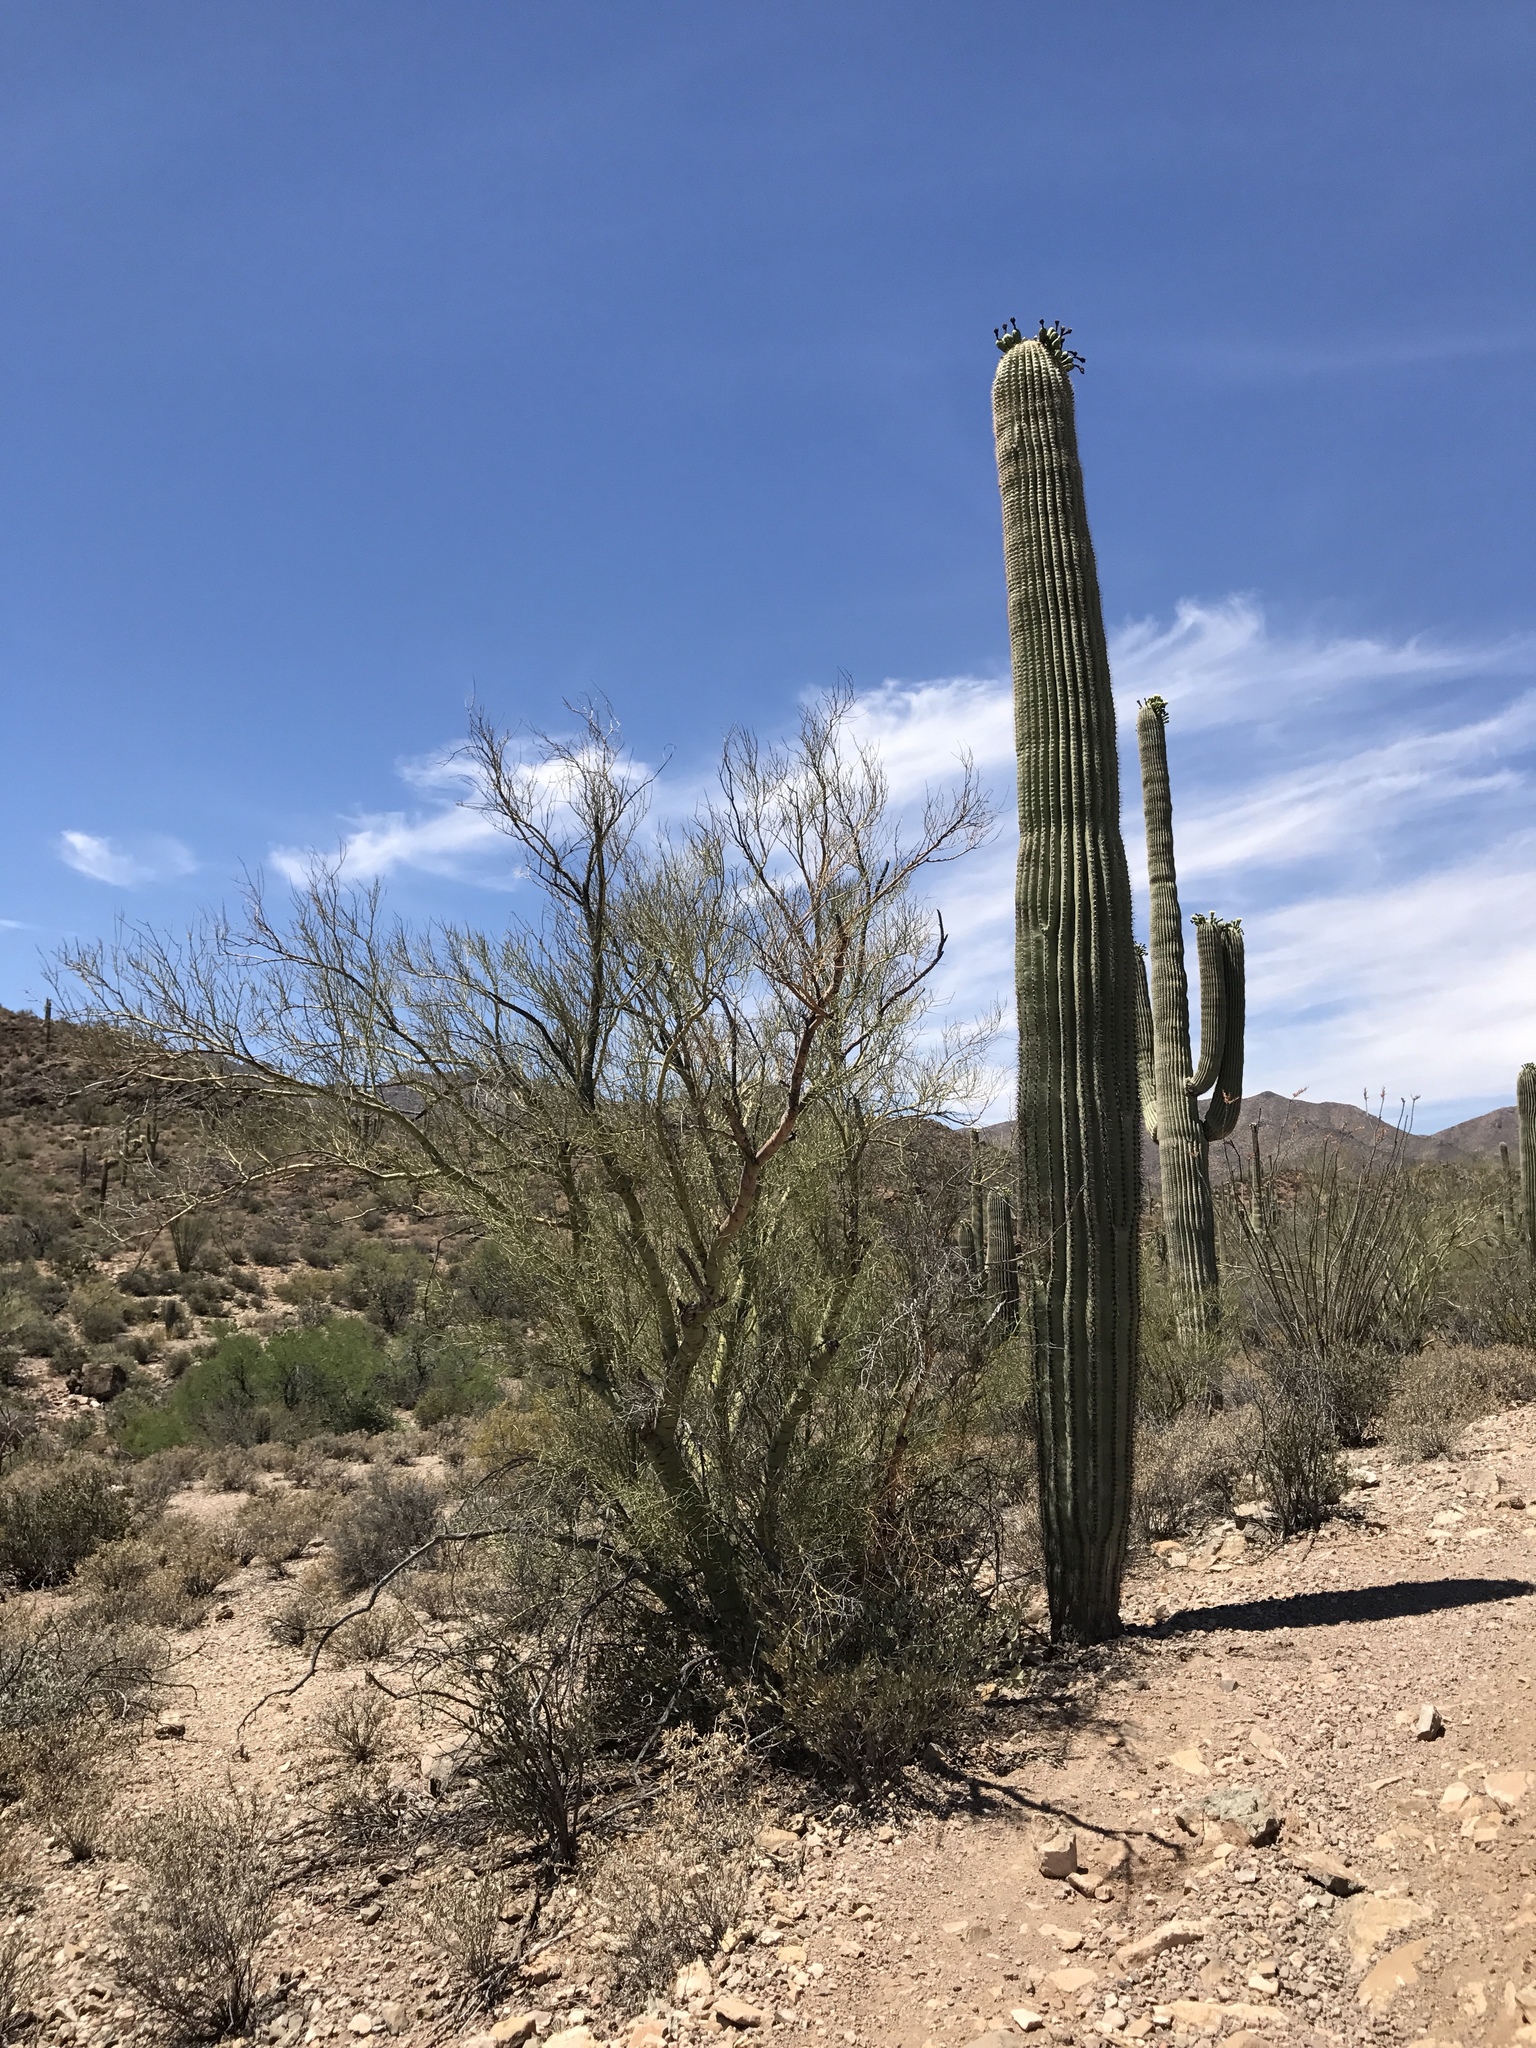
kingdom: Plantae
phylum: Tracheophyta
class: Magnoliopsida
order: Caryophyllales
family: Cactaceae
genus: Carnegiea
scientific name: Carnegiea gigantea
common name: Saguaro
